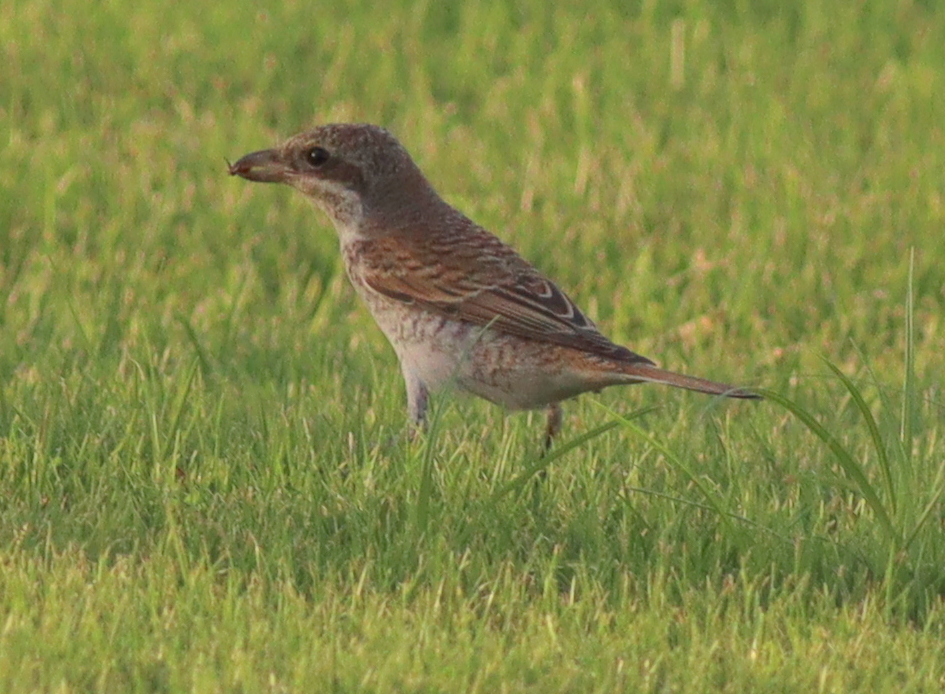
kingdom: Animalia
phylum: Chordata
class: Aves
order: Passeriformes
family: Laniidae
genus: Lanius
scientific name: Lanius collurio
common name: Red-backed shrike
